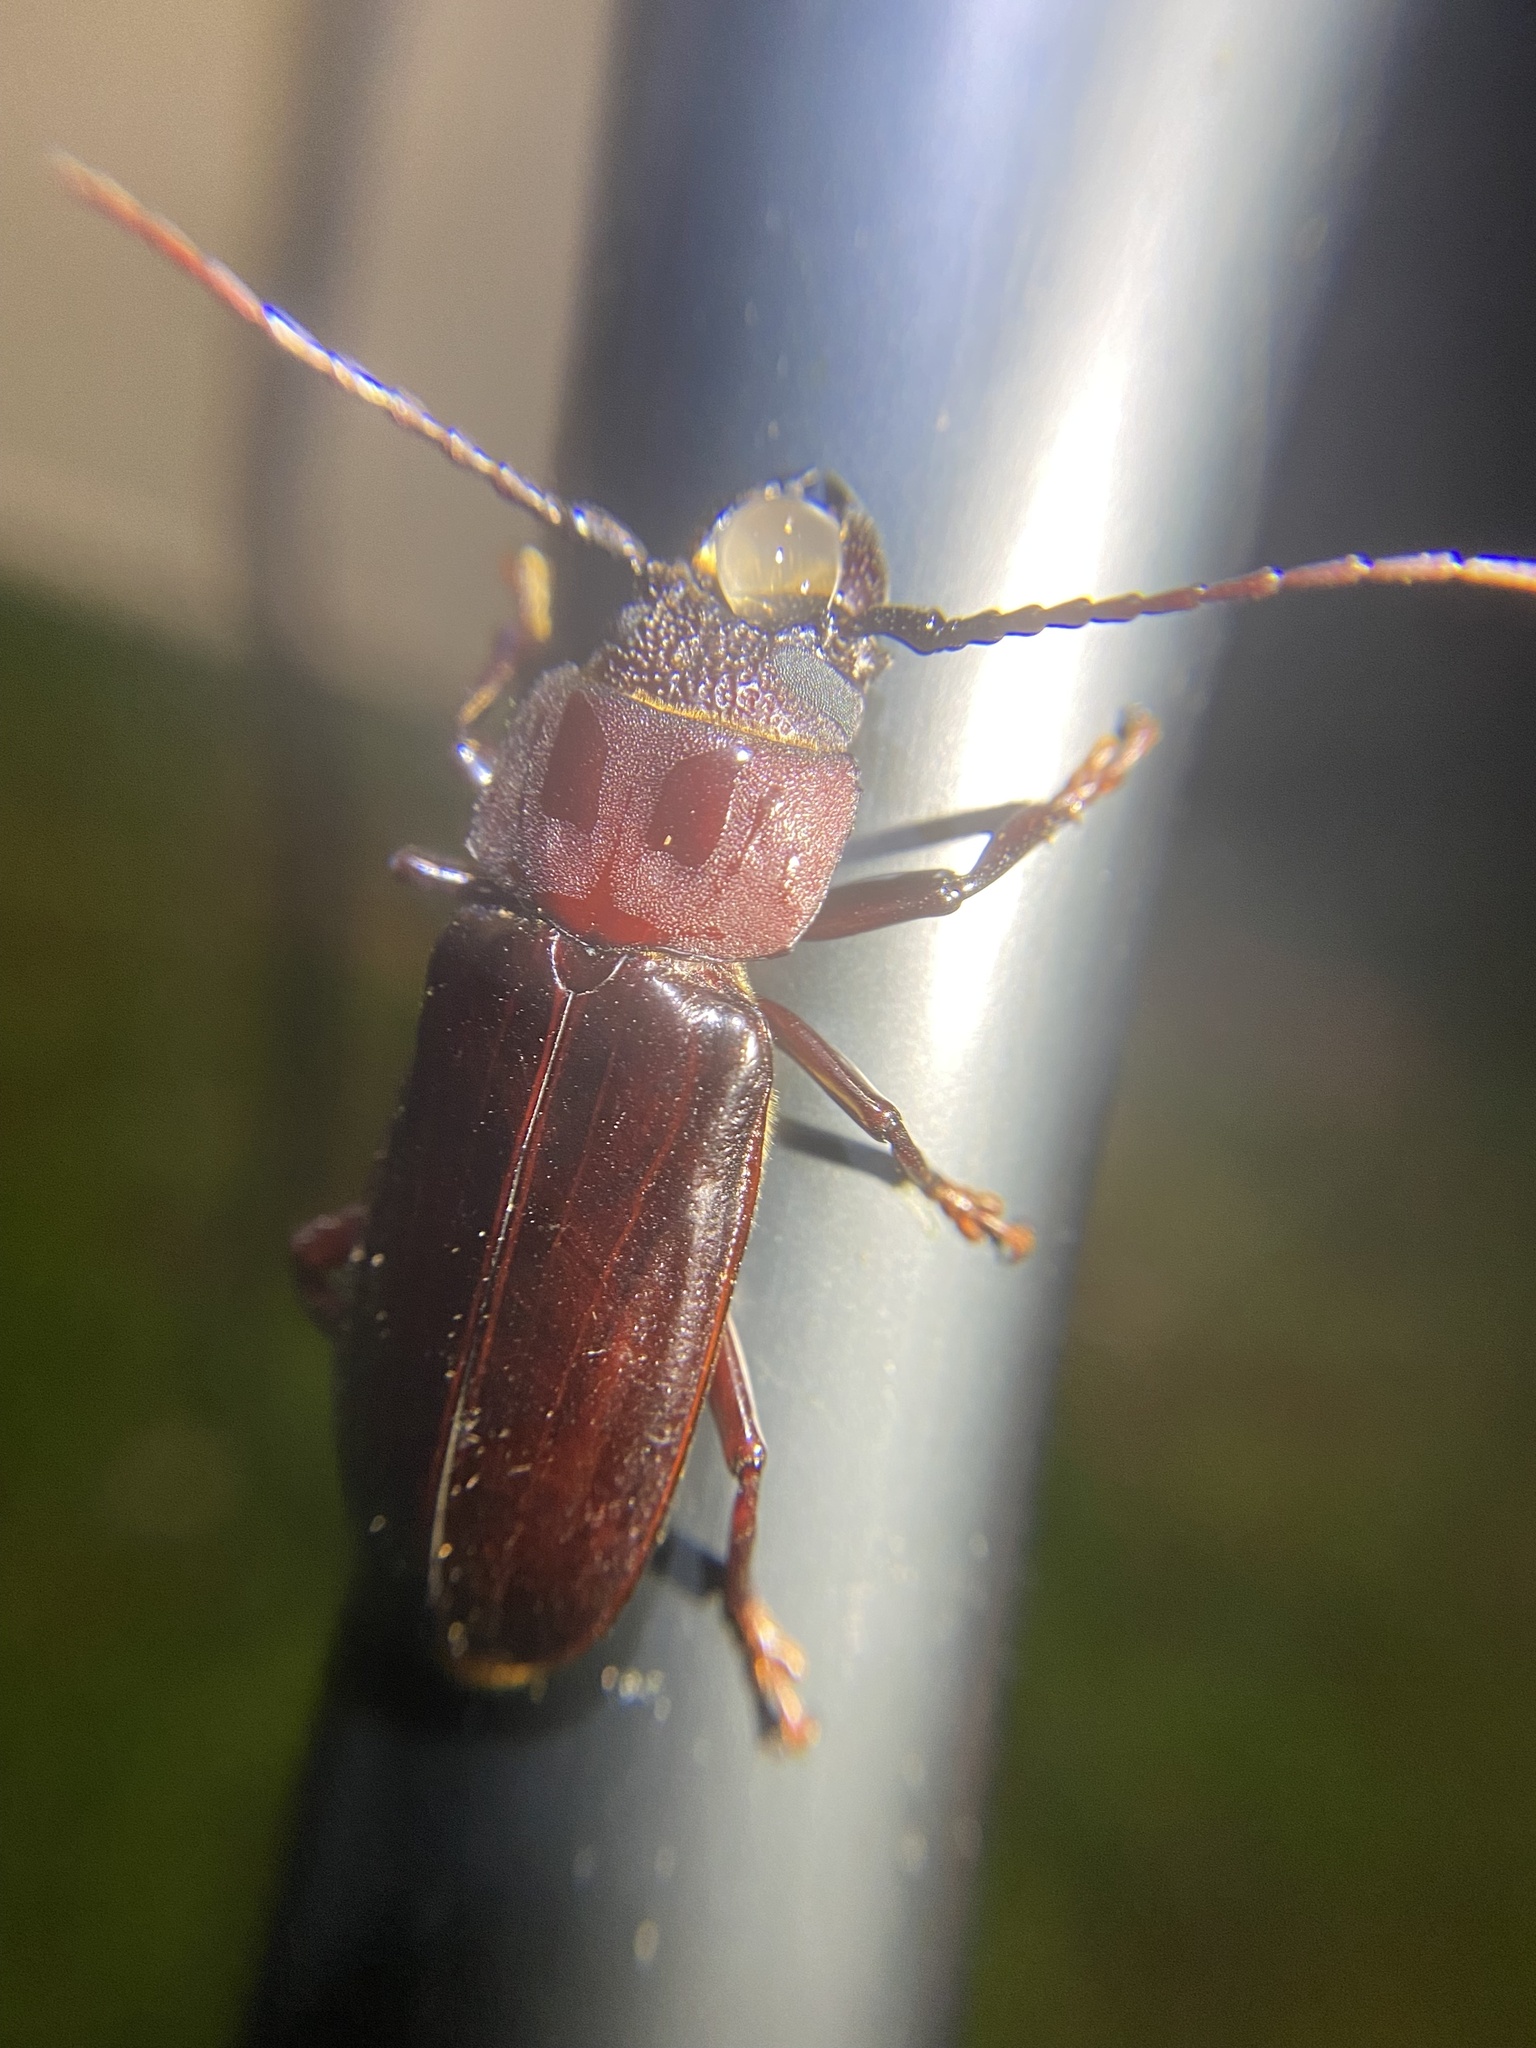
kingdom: Animalia
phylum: Arthropoda
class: Insecta
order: Coleoptera
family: Cerambycidae
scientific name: Cerambycidae
